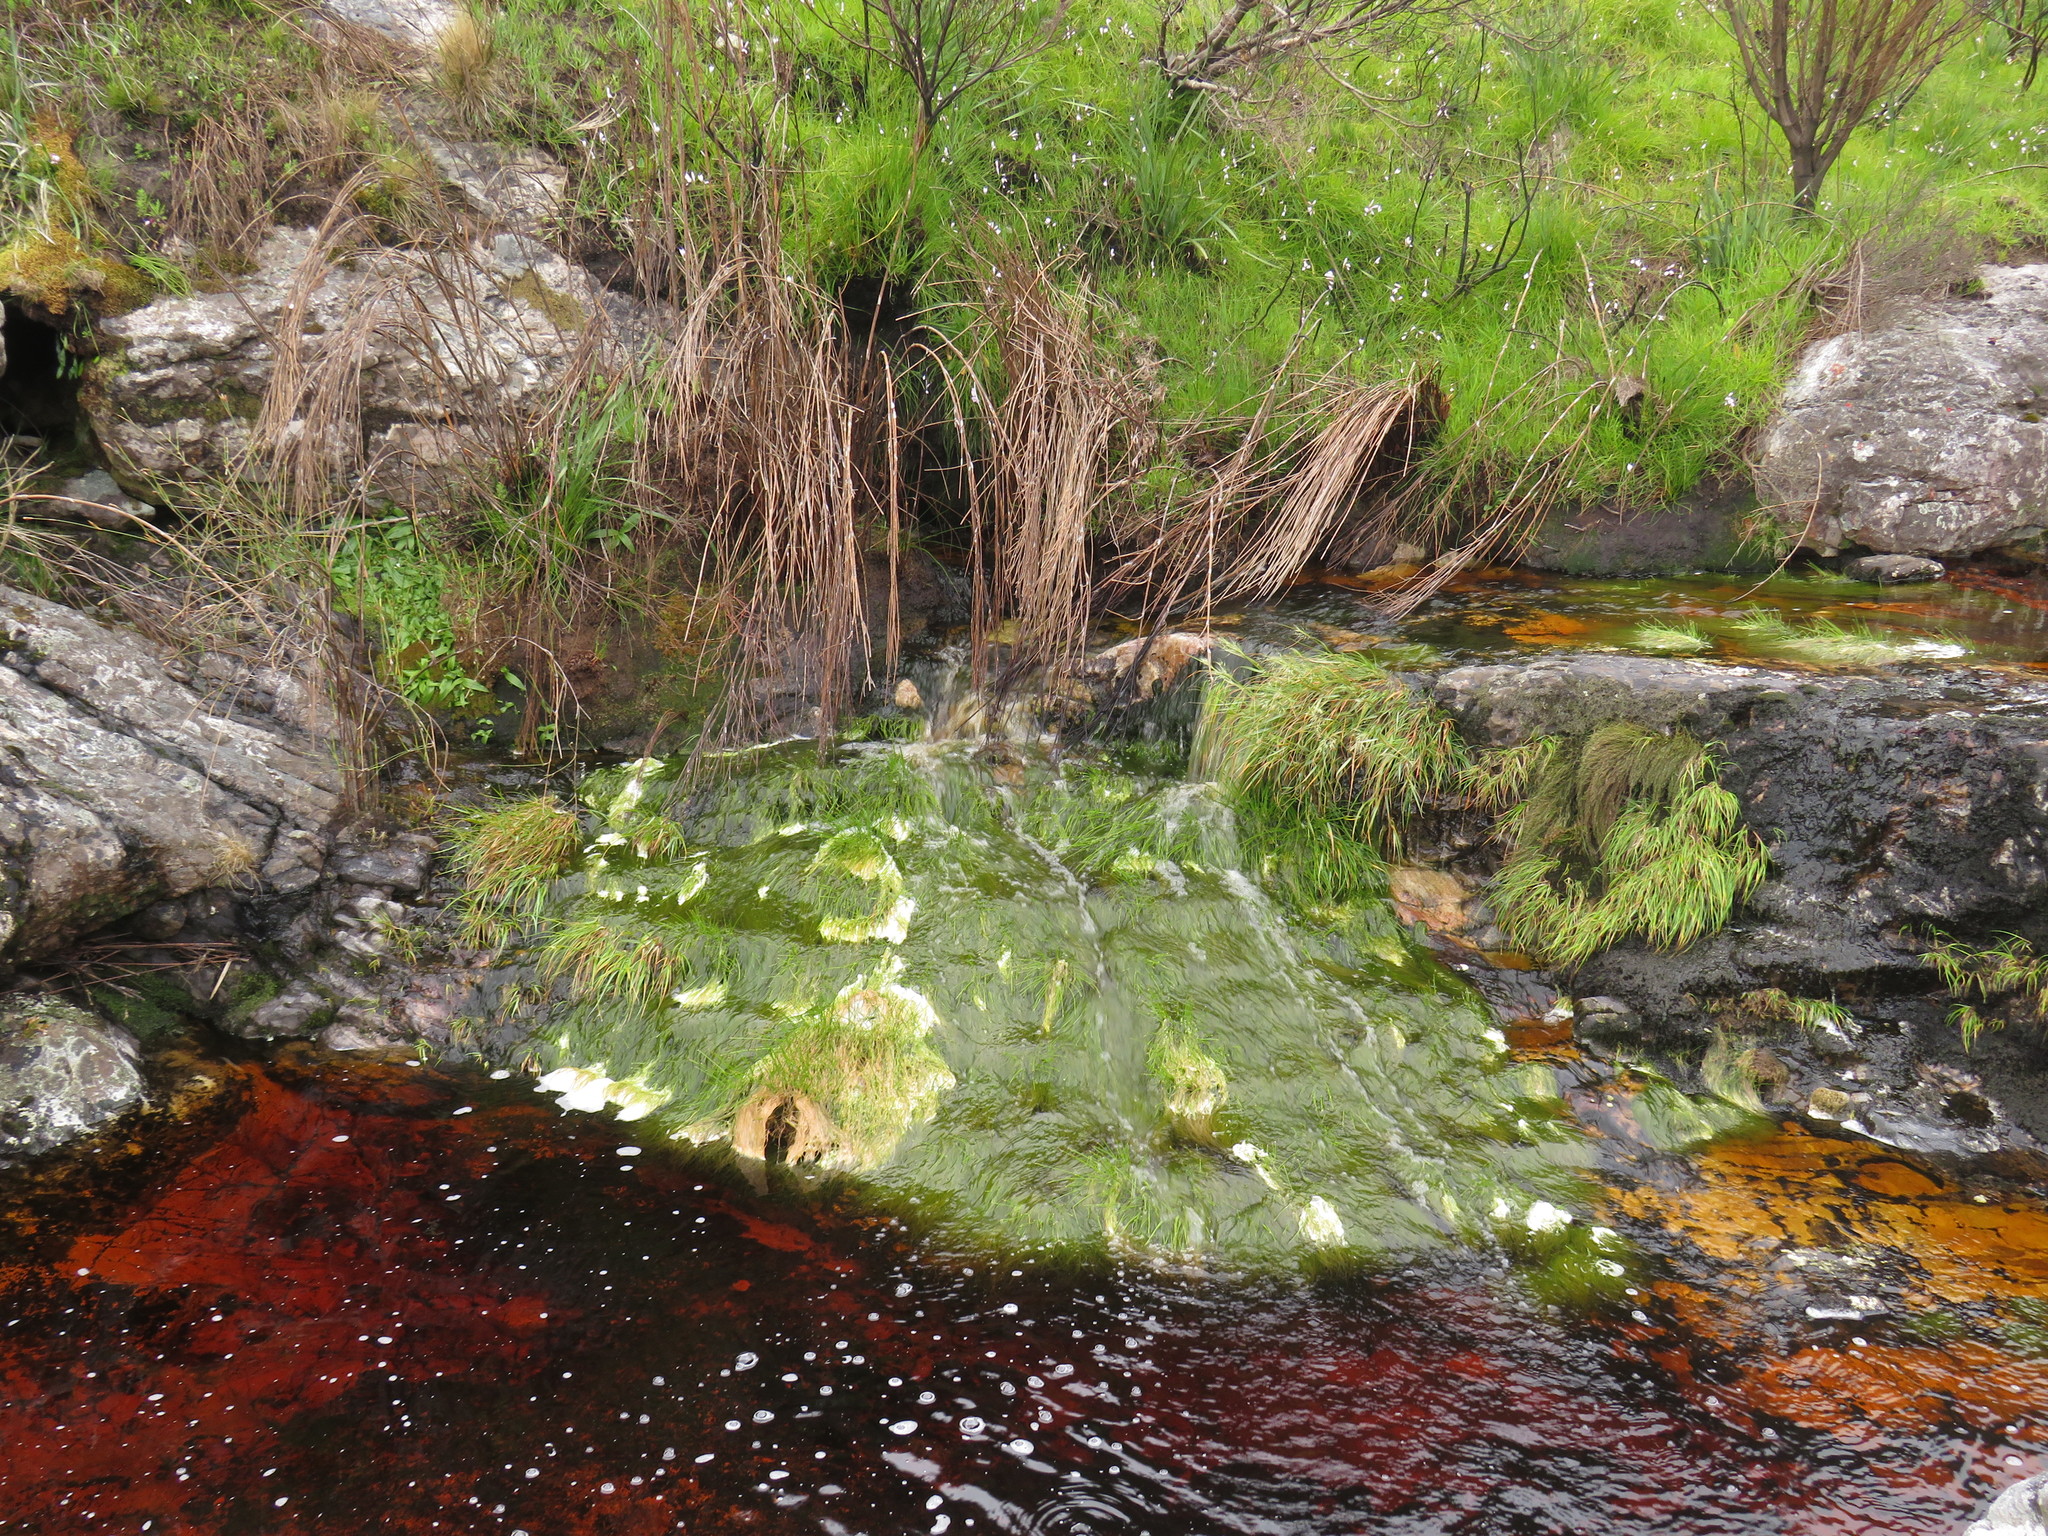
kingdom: Plantae
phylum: Tracheophyta
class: Liliopsida
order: Poales
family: Cyperaceae
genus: Isolepis
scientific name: Isolepis digitata
